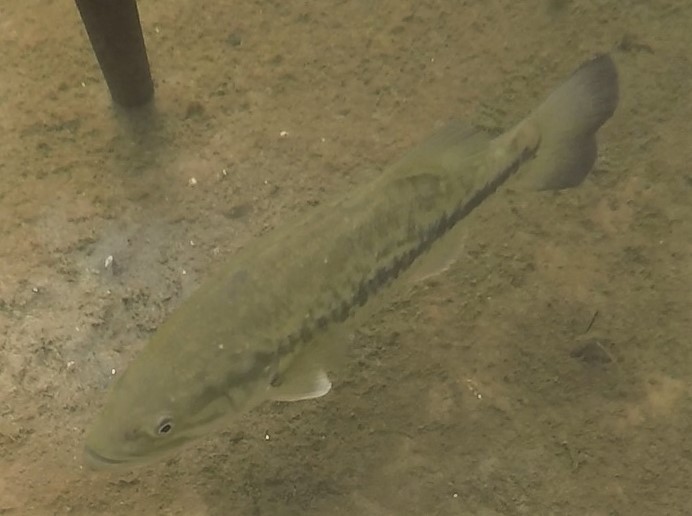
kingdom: Animalia
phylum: Chordata
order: Perciformes
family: Centrarchidae
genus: Micropterus
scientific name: Micropterus
